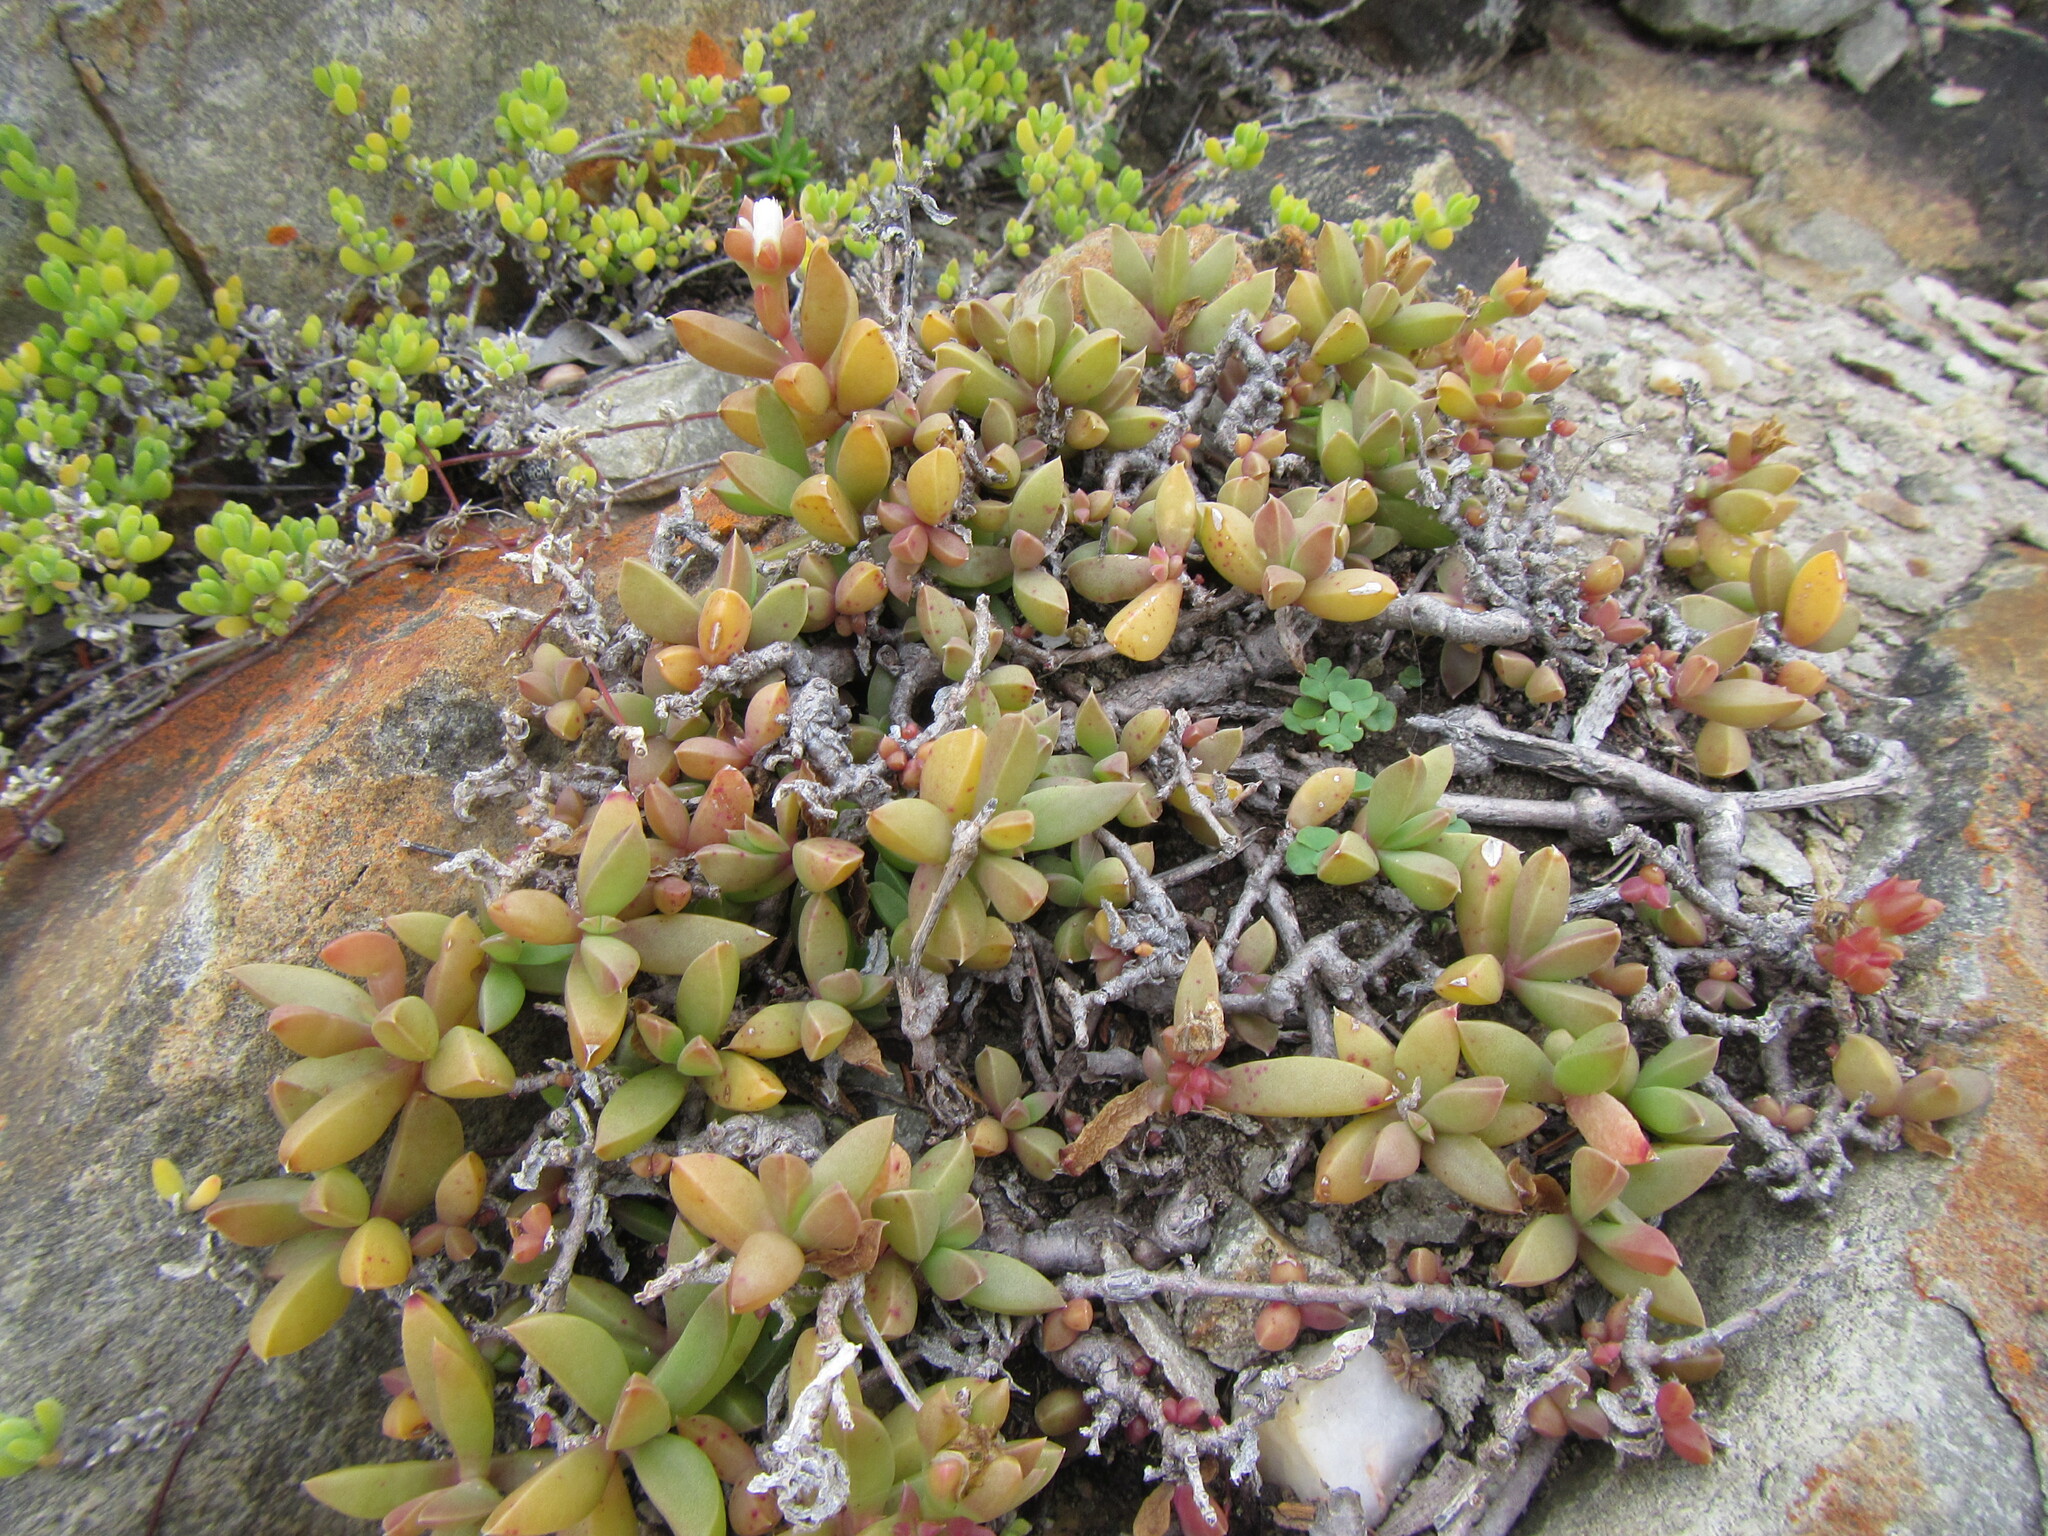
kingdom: Plantae
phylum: Tracheophyta
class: Magnoliopsida
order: Caryophyllales
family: Aizoaceae
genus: Delosperma
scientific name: Delosperma litorale
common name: Seaside delosperma
